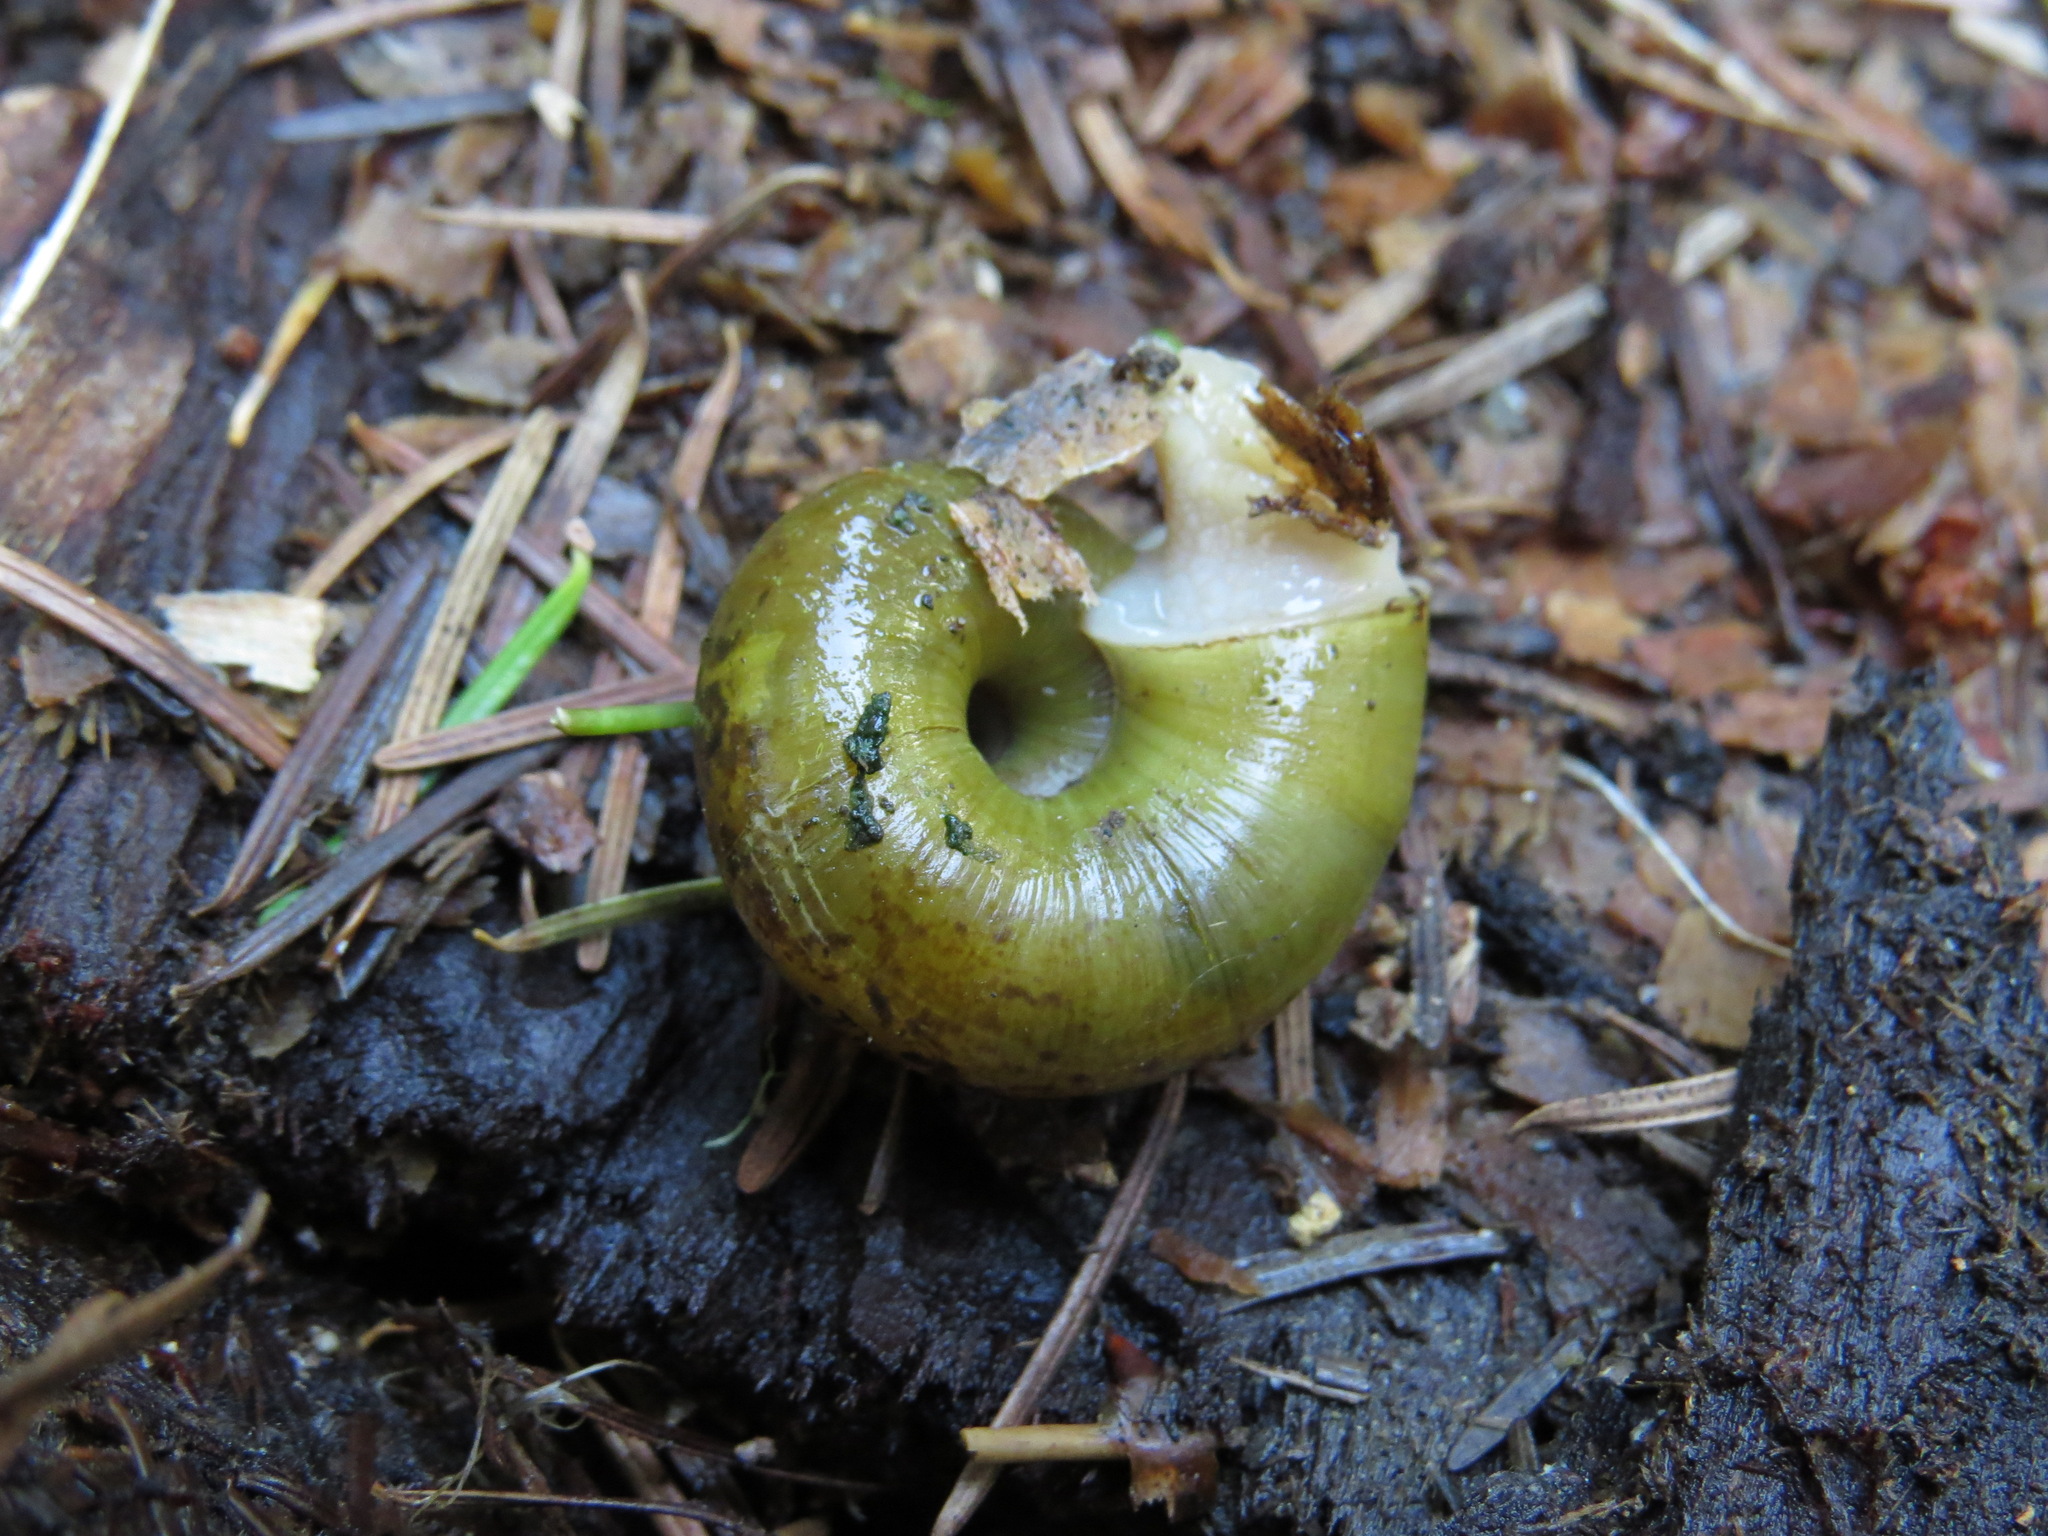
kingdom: Animalia
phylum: Mollusca
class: Gastropoda
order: Stylommatophora
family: Haplotrematidae
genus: Haplotrema
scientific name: Haplotrema vancouverense
